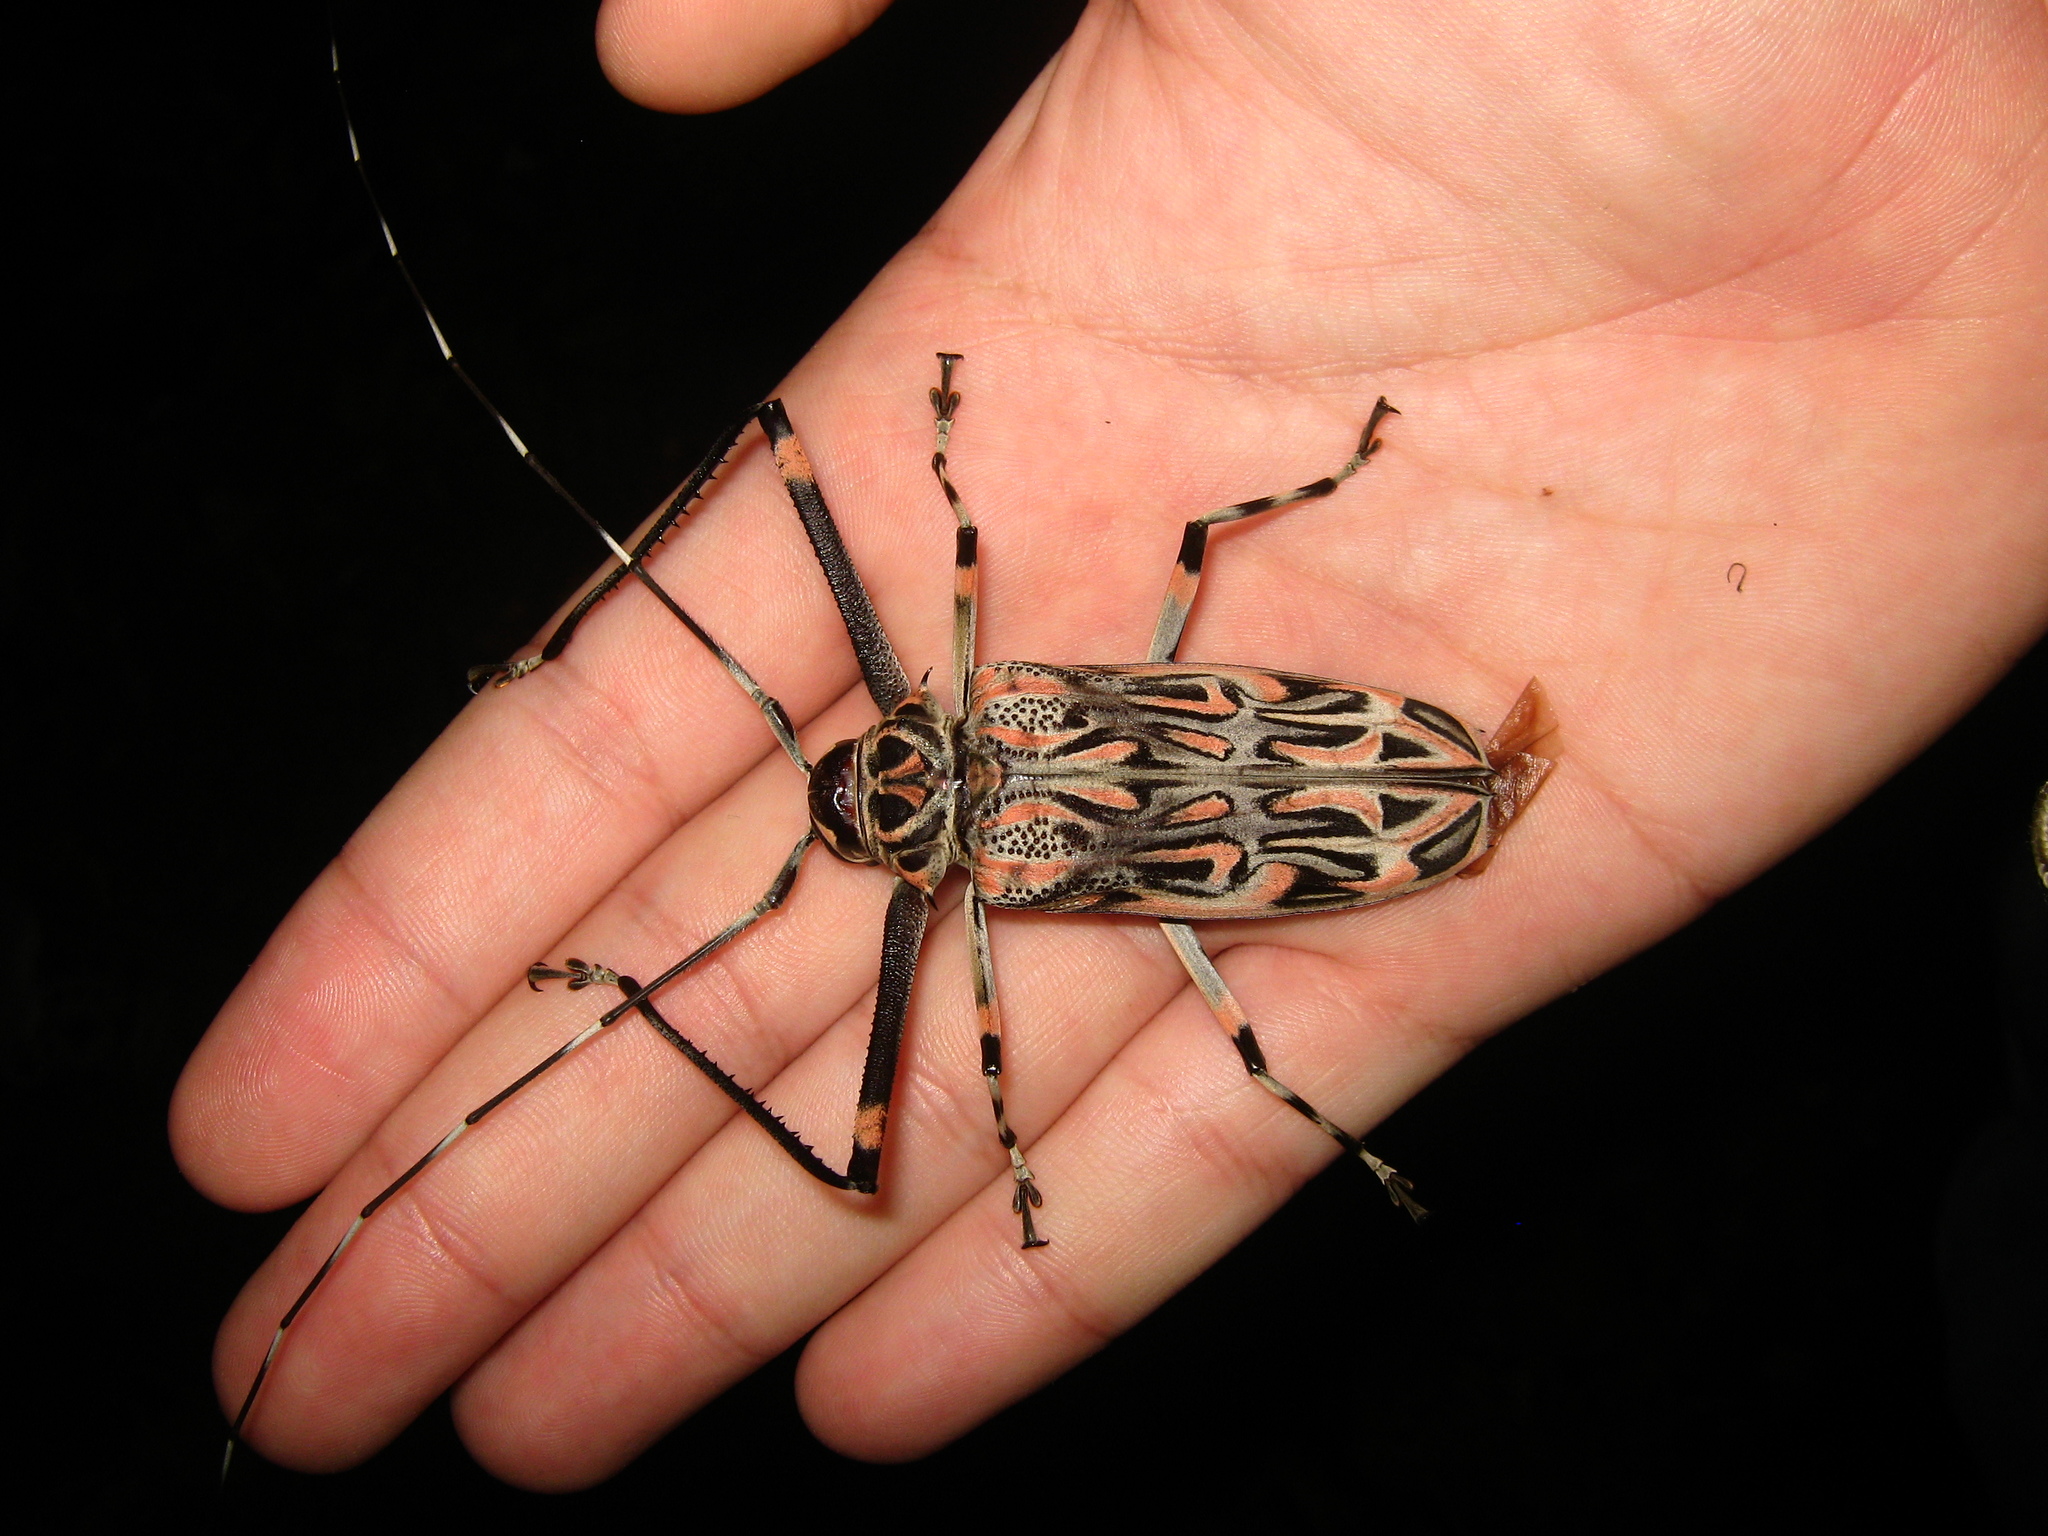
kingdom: Animalia
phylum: Arthropoda
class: Insecta
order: Coleoptera
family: Cerambycidae
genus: Acrocinus
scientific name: Acrocinus longimanus
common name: Arlequin
